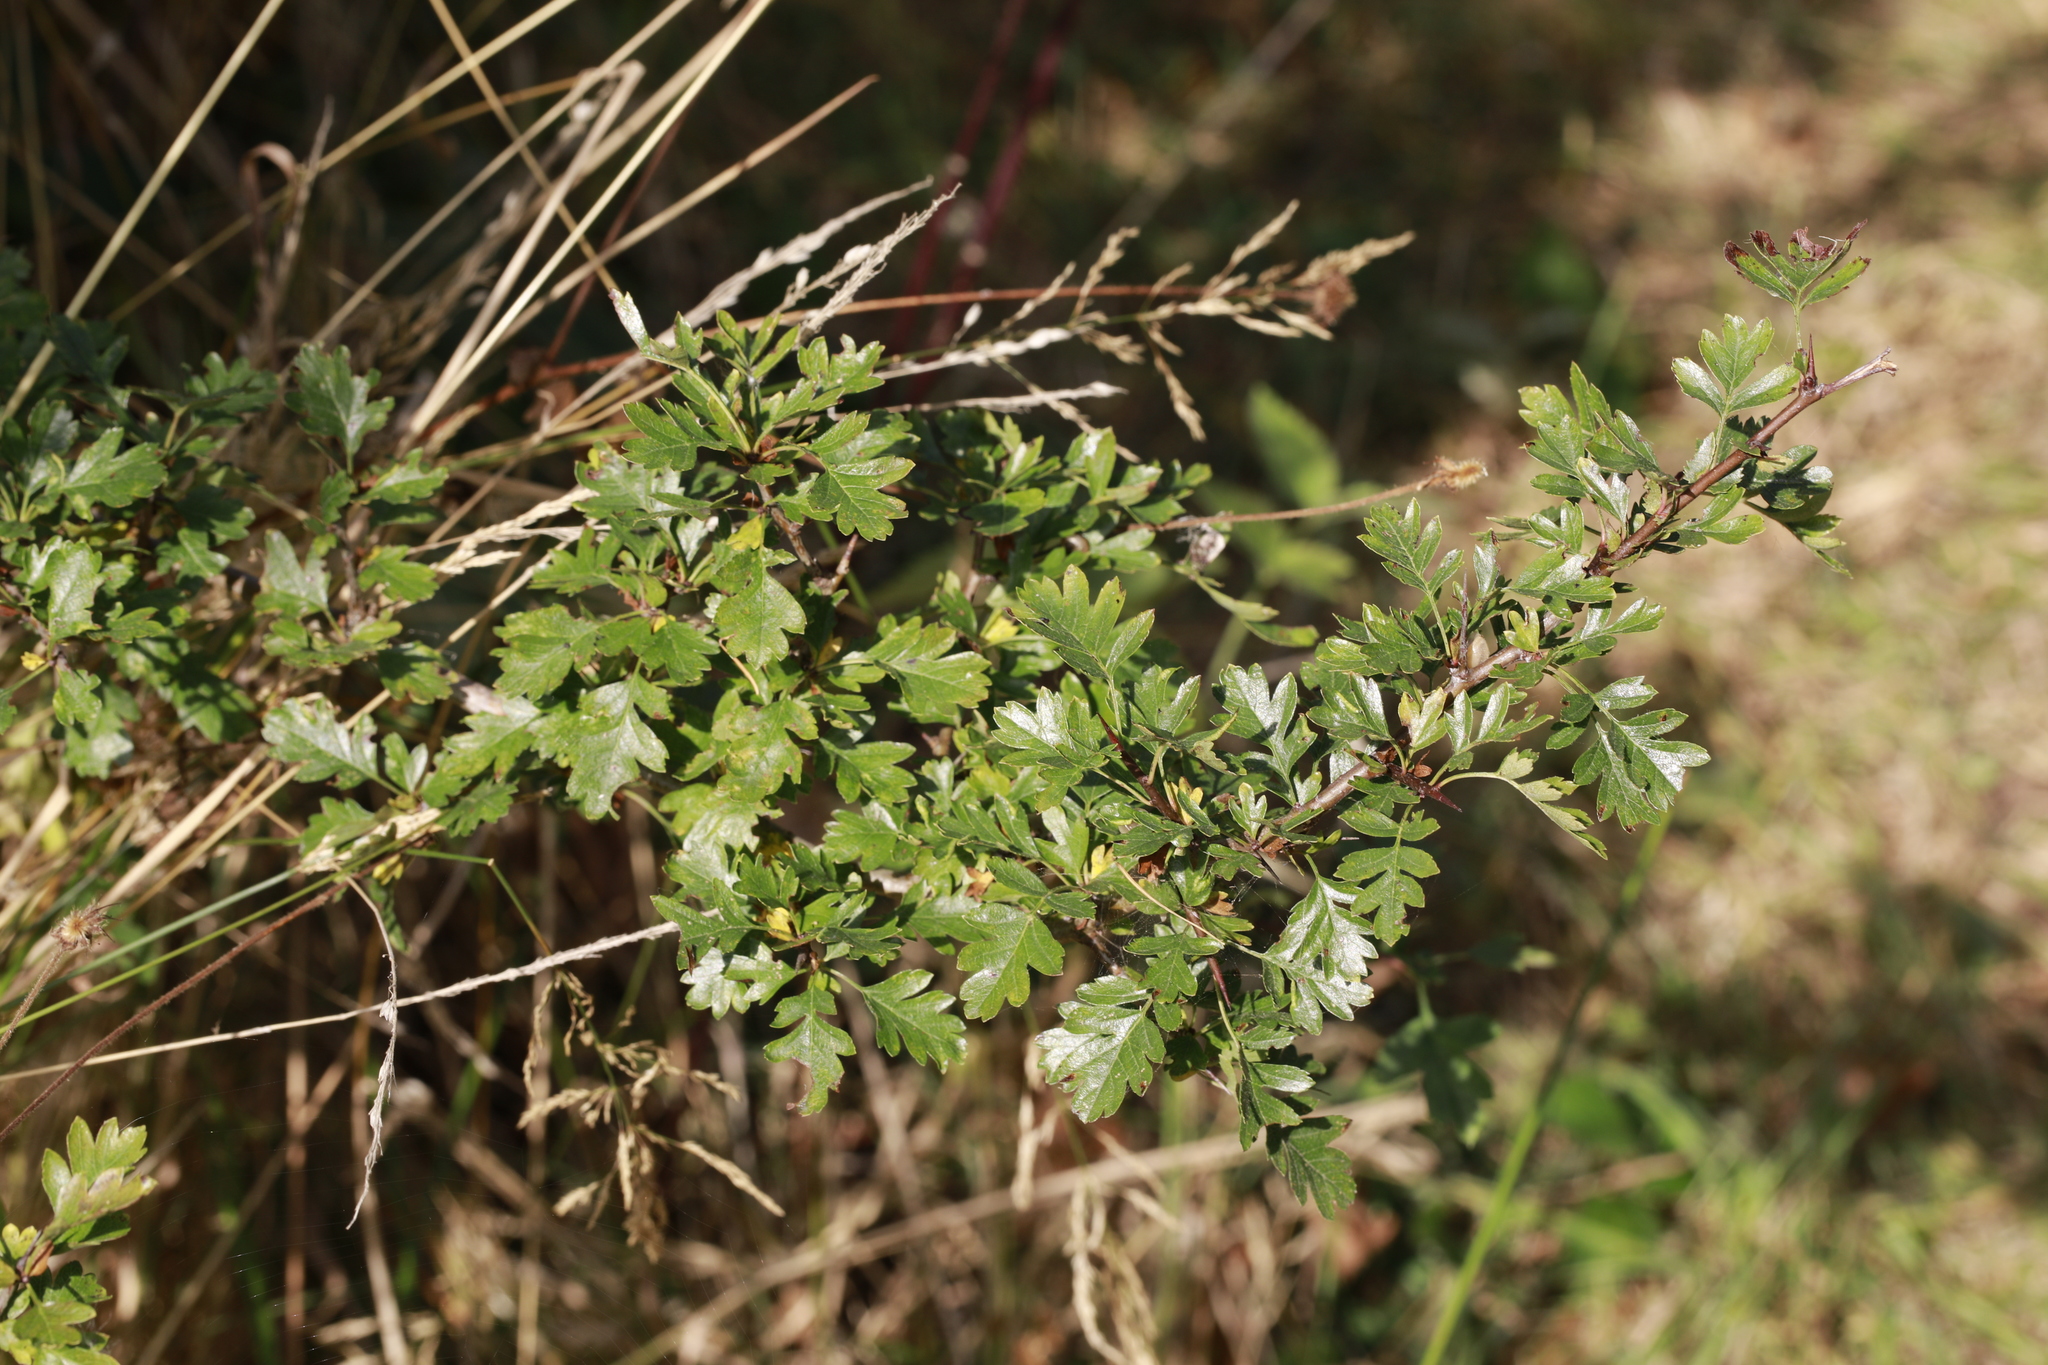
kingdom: Plantae
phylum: Tracheophyta
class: Magnoliopsida
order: Rosales
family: Rosaceae
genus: Crataegus
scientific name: Crataegus monogyna
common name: Hawthorn
